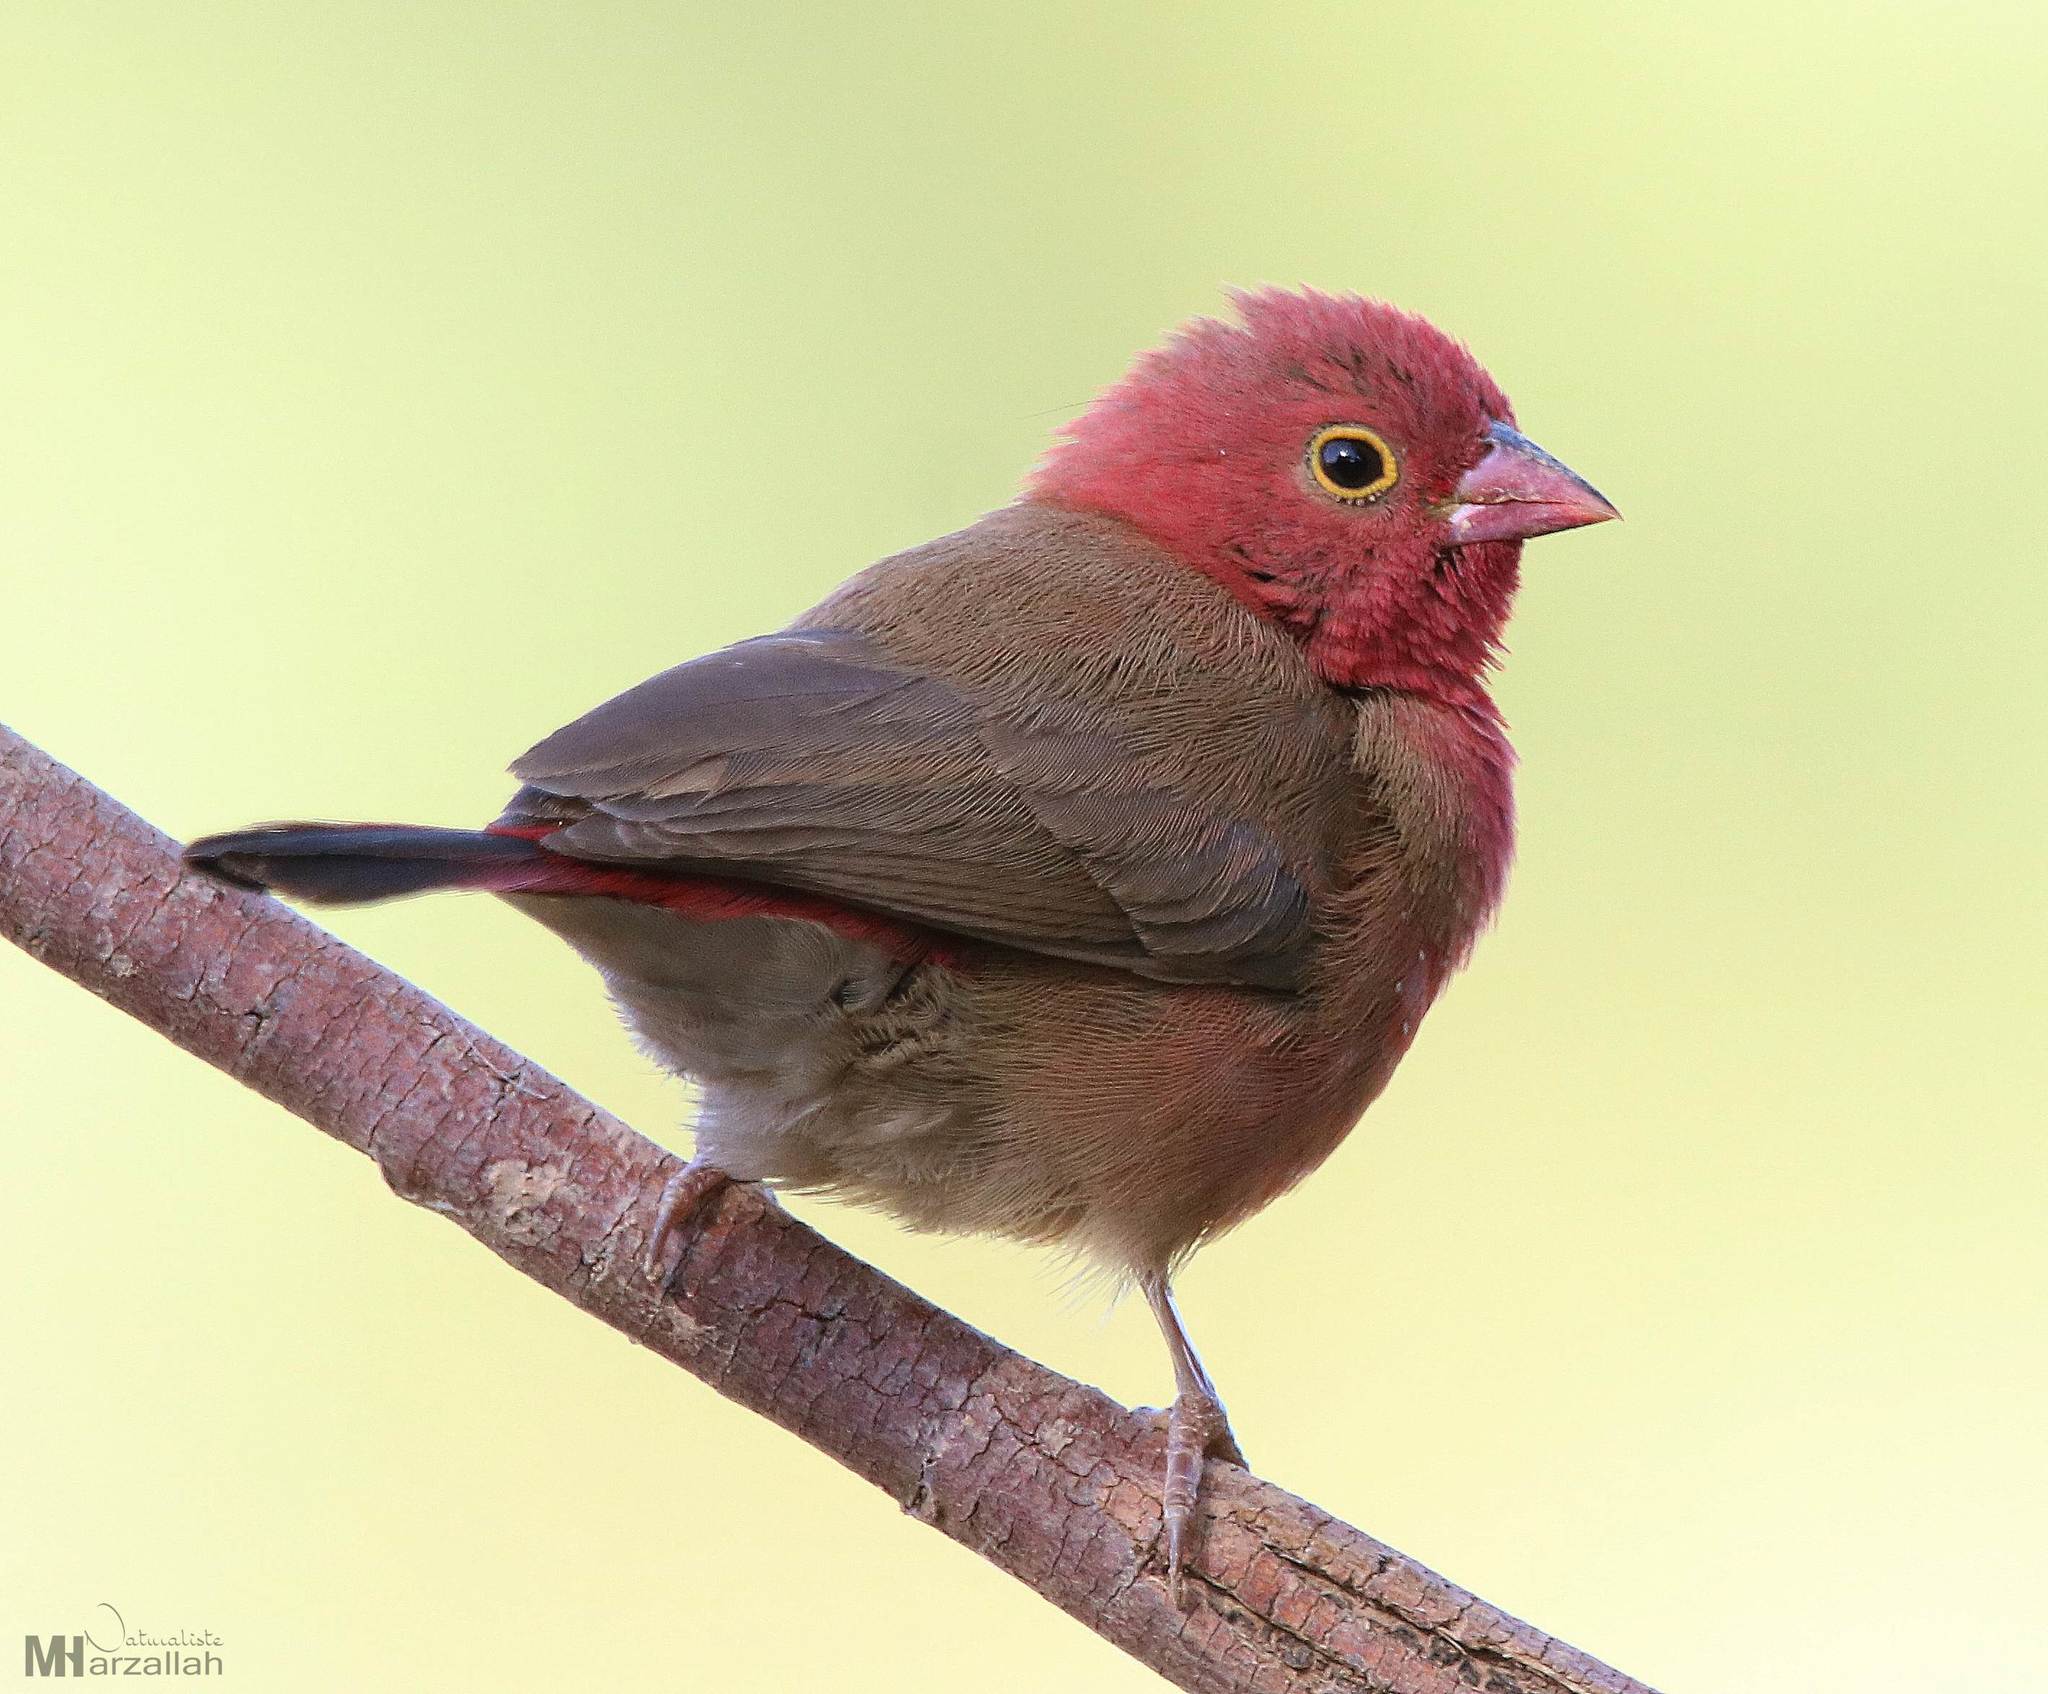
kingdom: Animalia
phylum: Chordata
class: Aves
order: Passeriformes
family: Estrildidae
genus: Lagonosticta
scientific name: Lagonosticta senegala
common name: Red-billed firefinch
